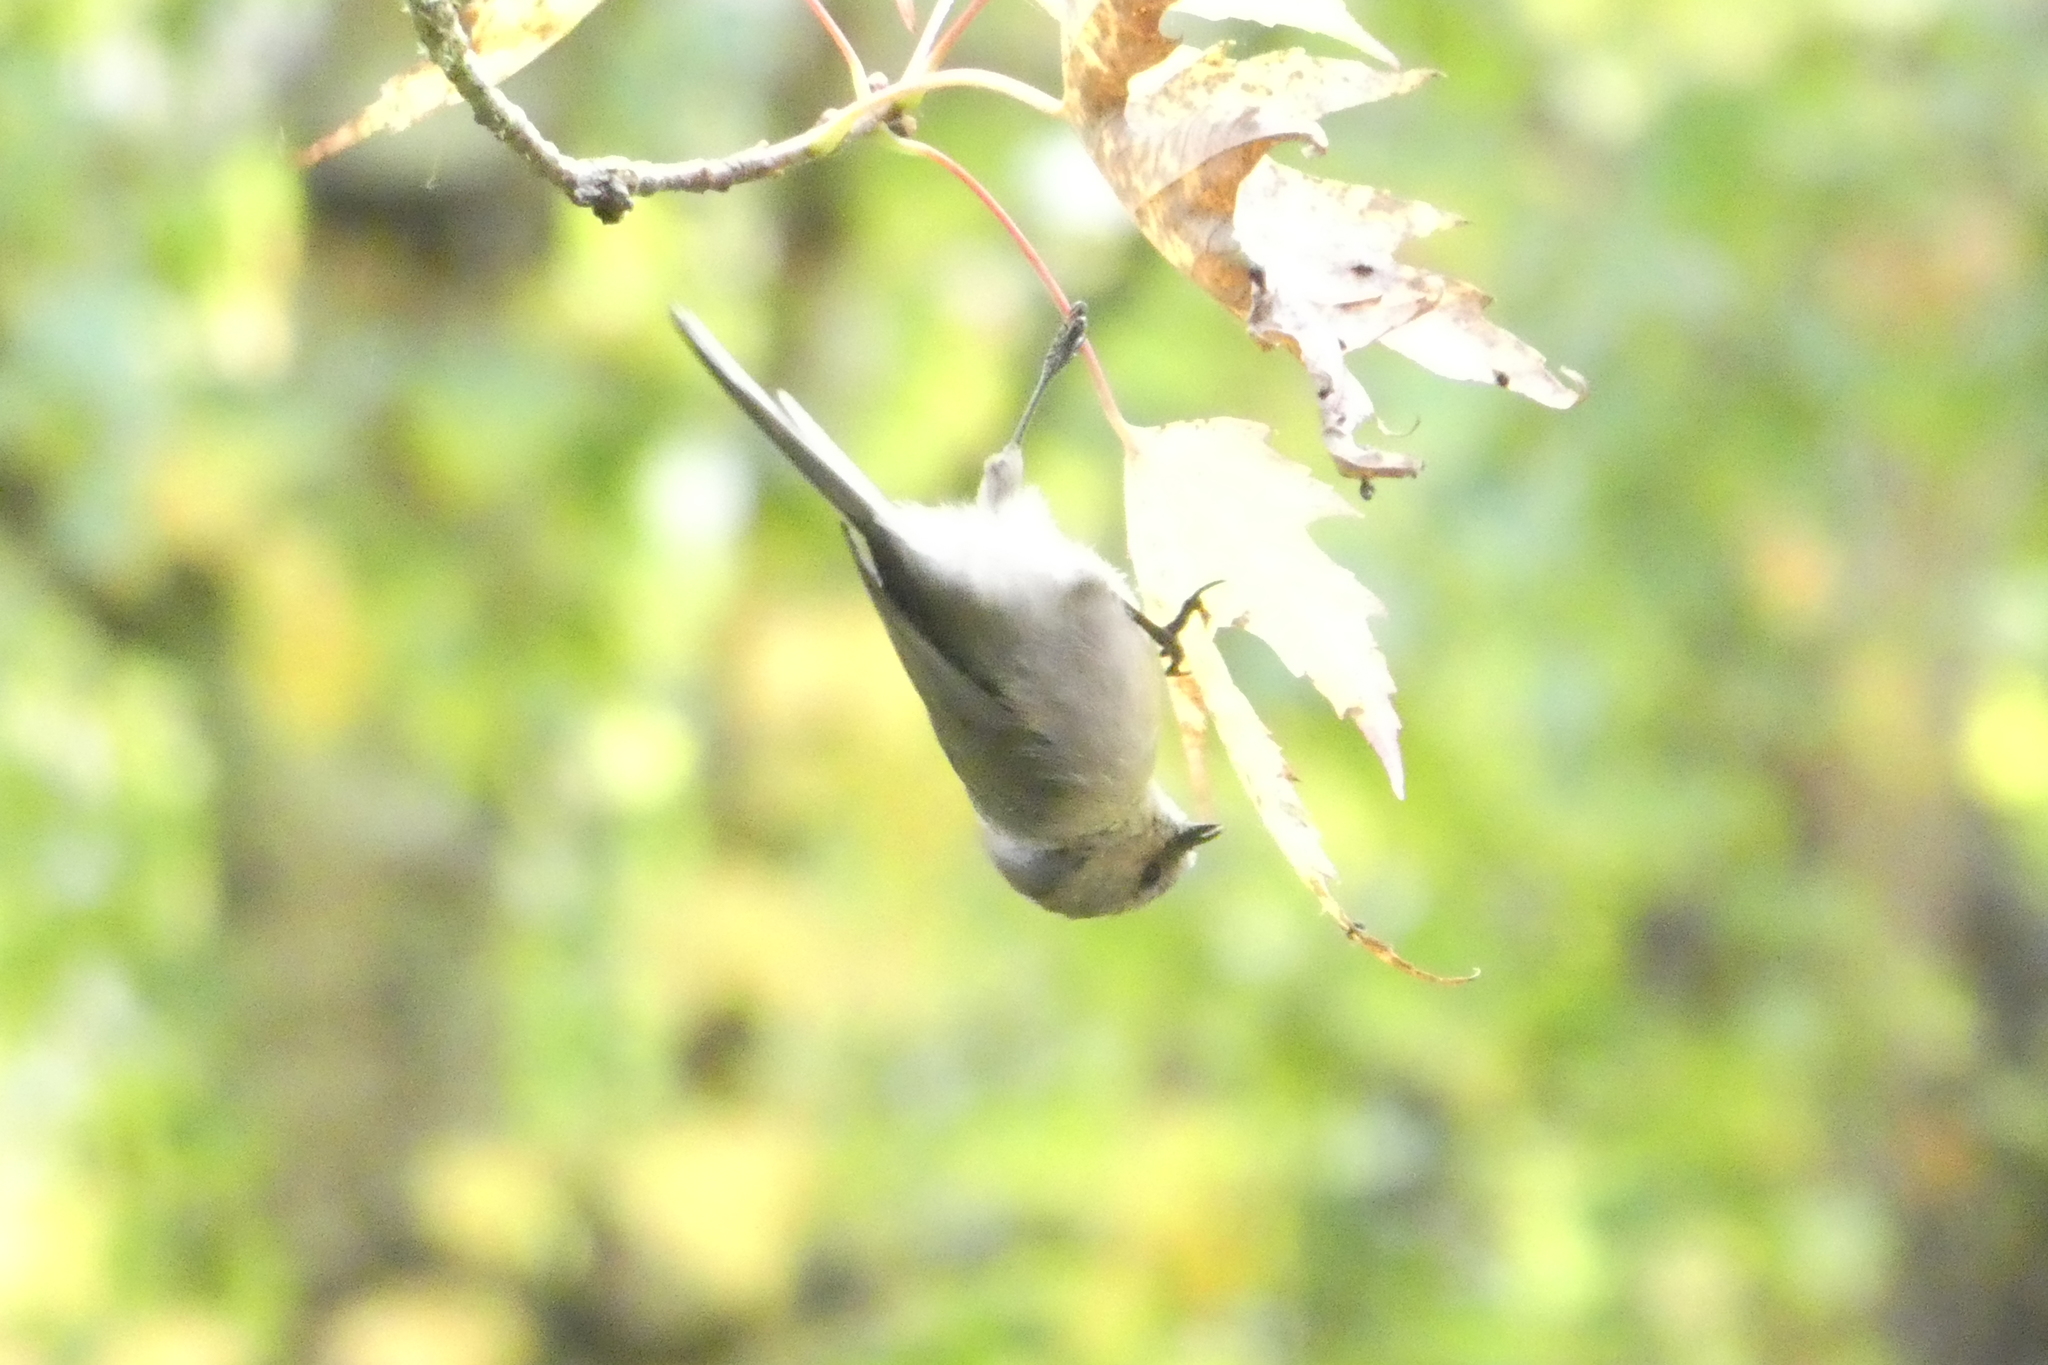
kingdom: Animalia
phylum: Chordata
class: Aves
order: Passeriformes
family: Aegithalidae
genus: Psaltriparus
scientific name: Psaltriparus minimus
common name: American bushtit
